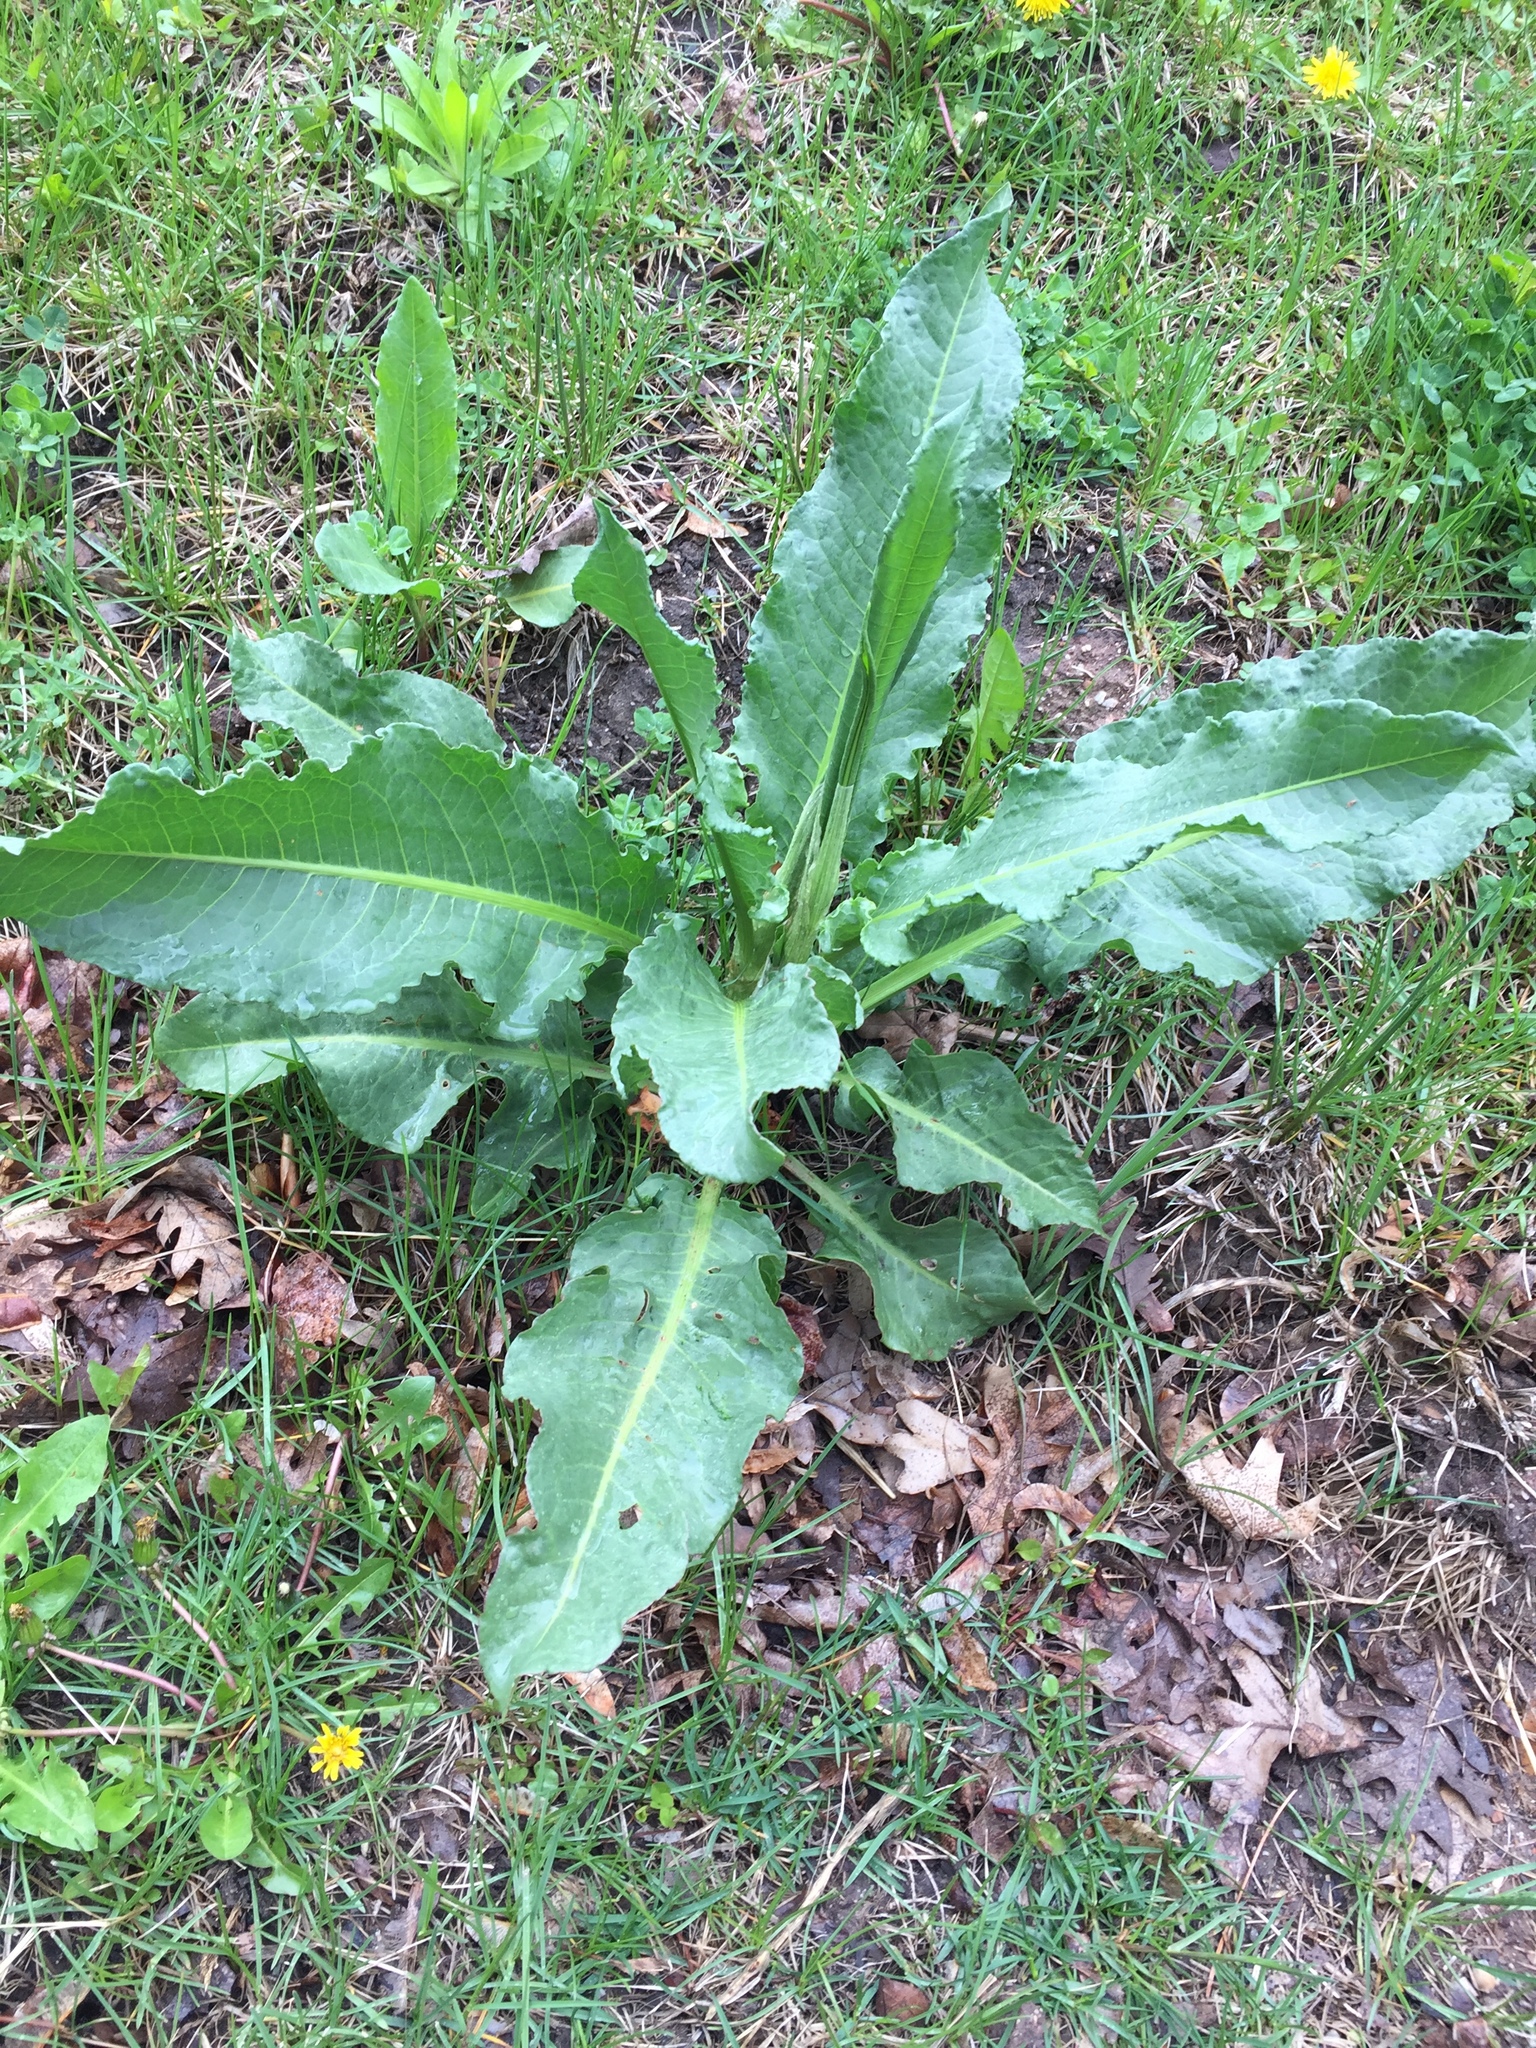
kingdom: Plantae
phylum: Tracheophyta
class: Magnoliopsida
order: Caryophyllales
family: Polygonaceae
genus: Rumex
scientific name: Rumex crispus
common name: Curled dock
